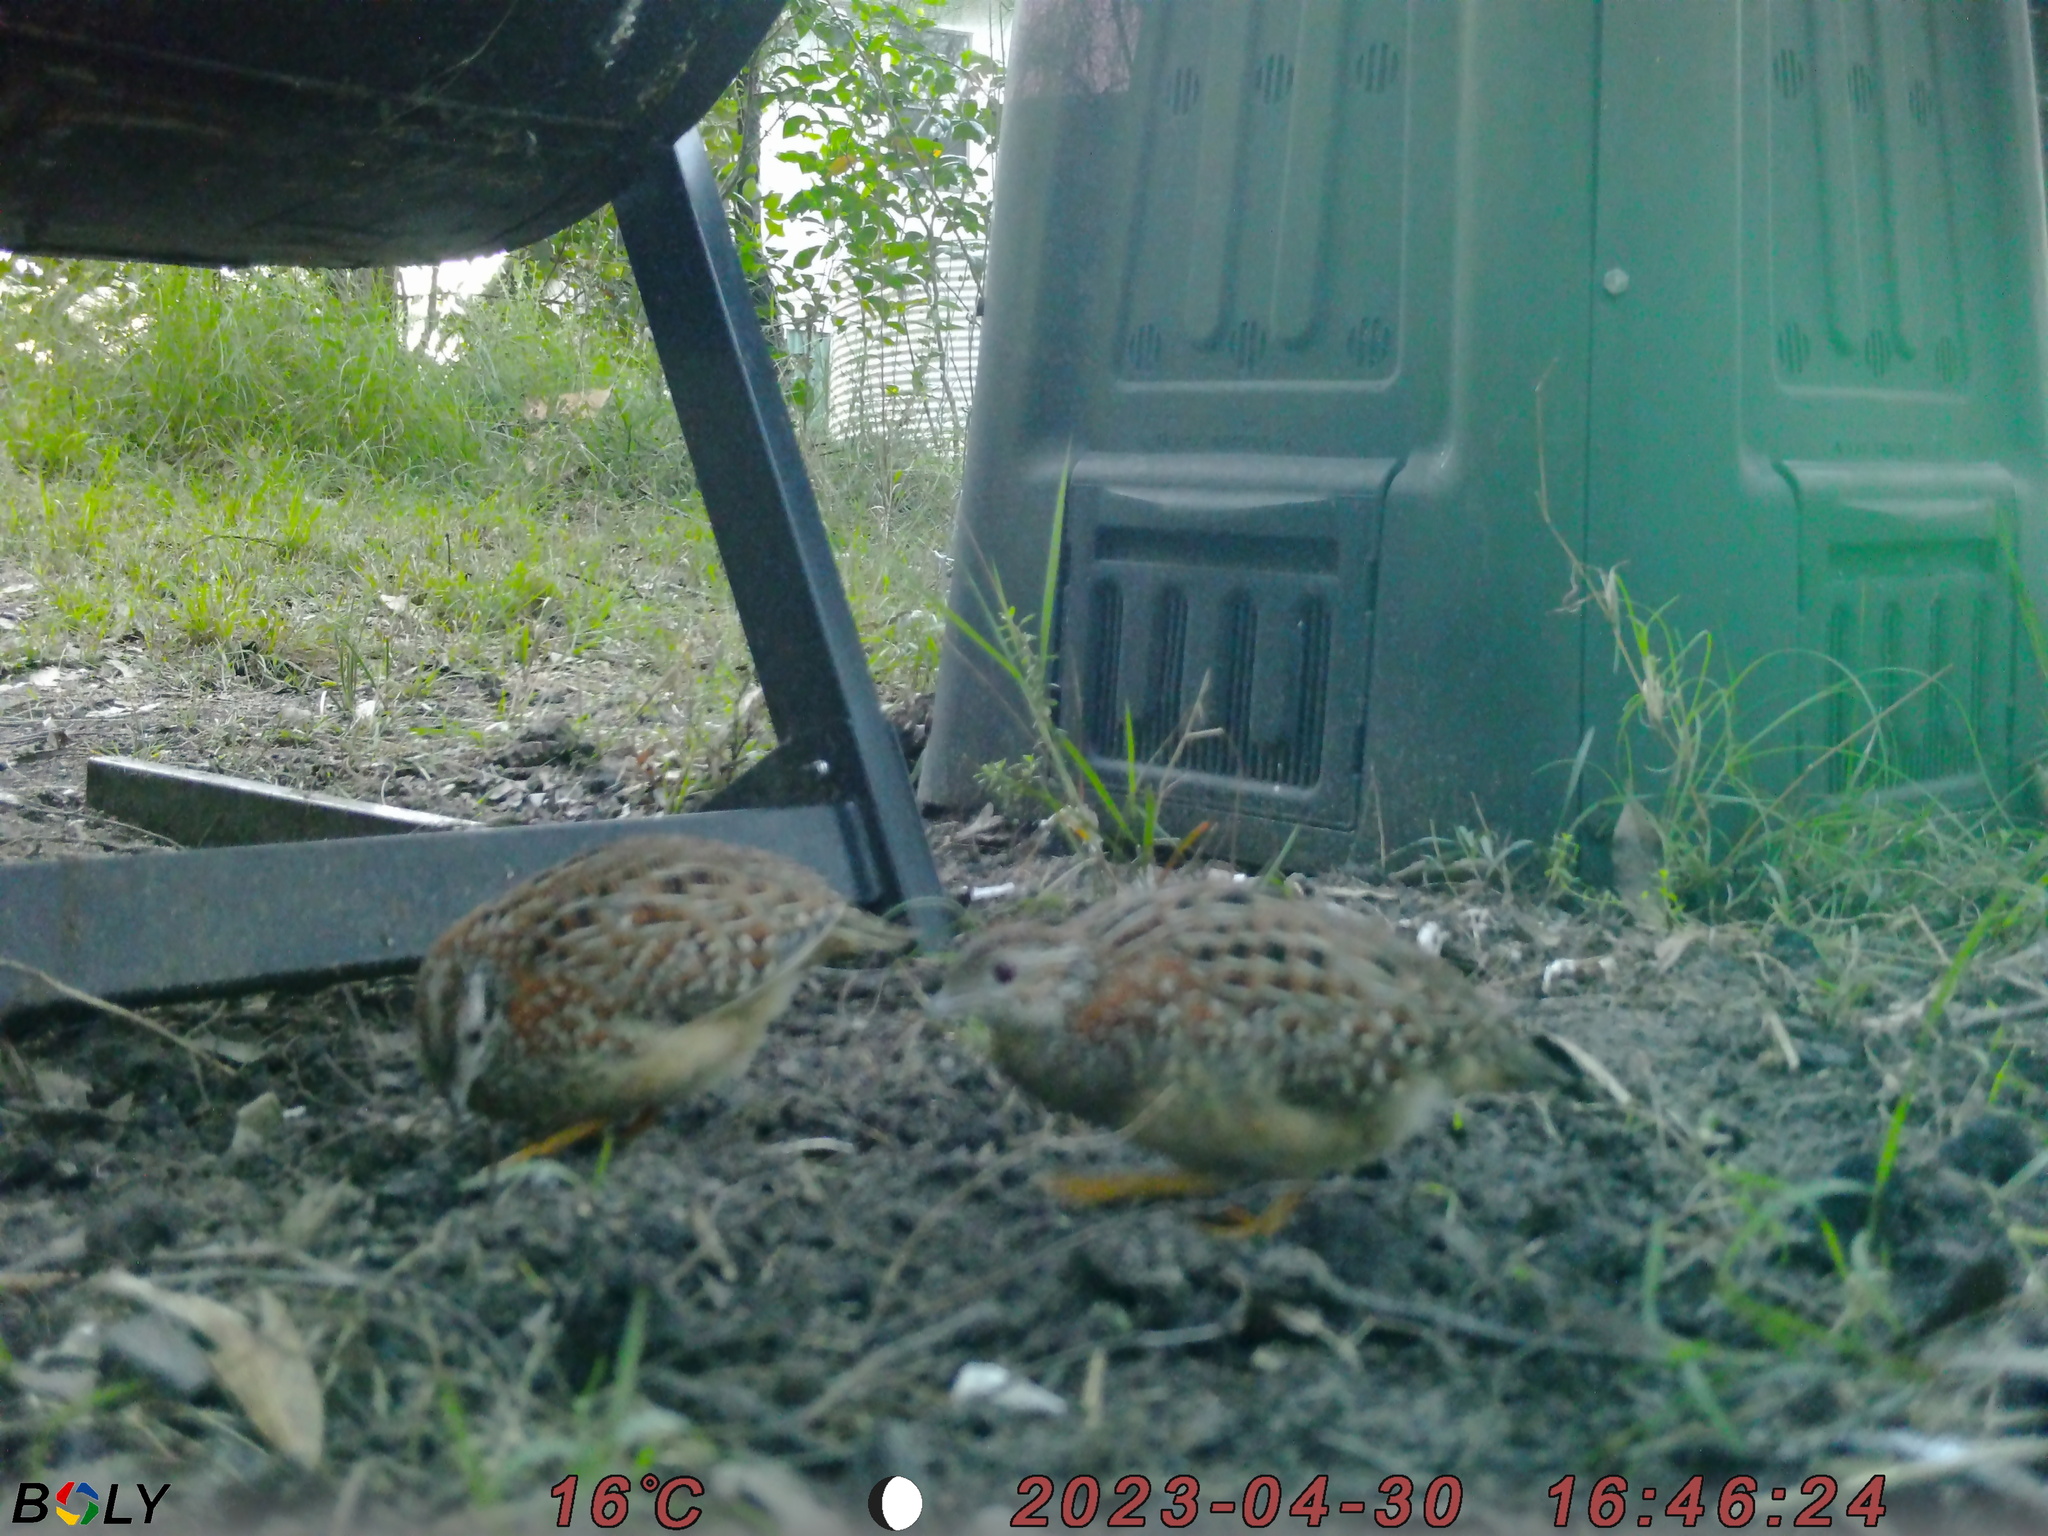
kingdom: Animalia
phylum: Chordata
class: Aves
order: Charadriiformes
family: Turnicidae
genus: Turnix
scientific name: Turnix varius
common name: Painted buttonquail
